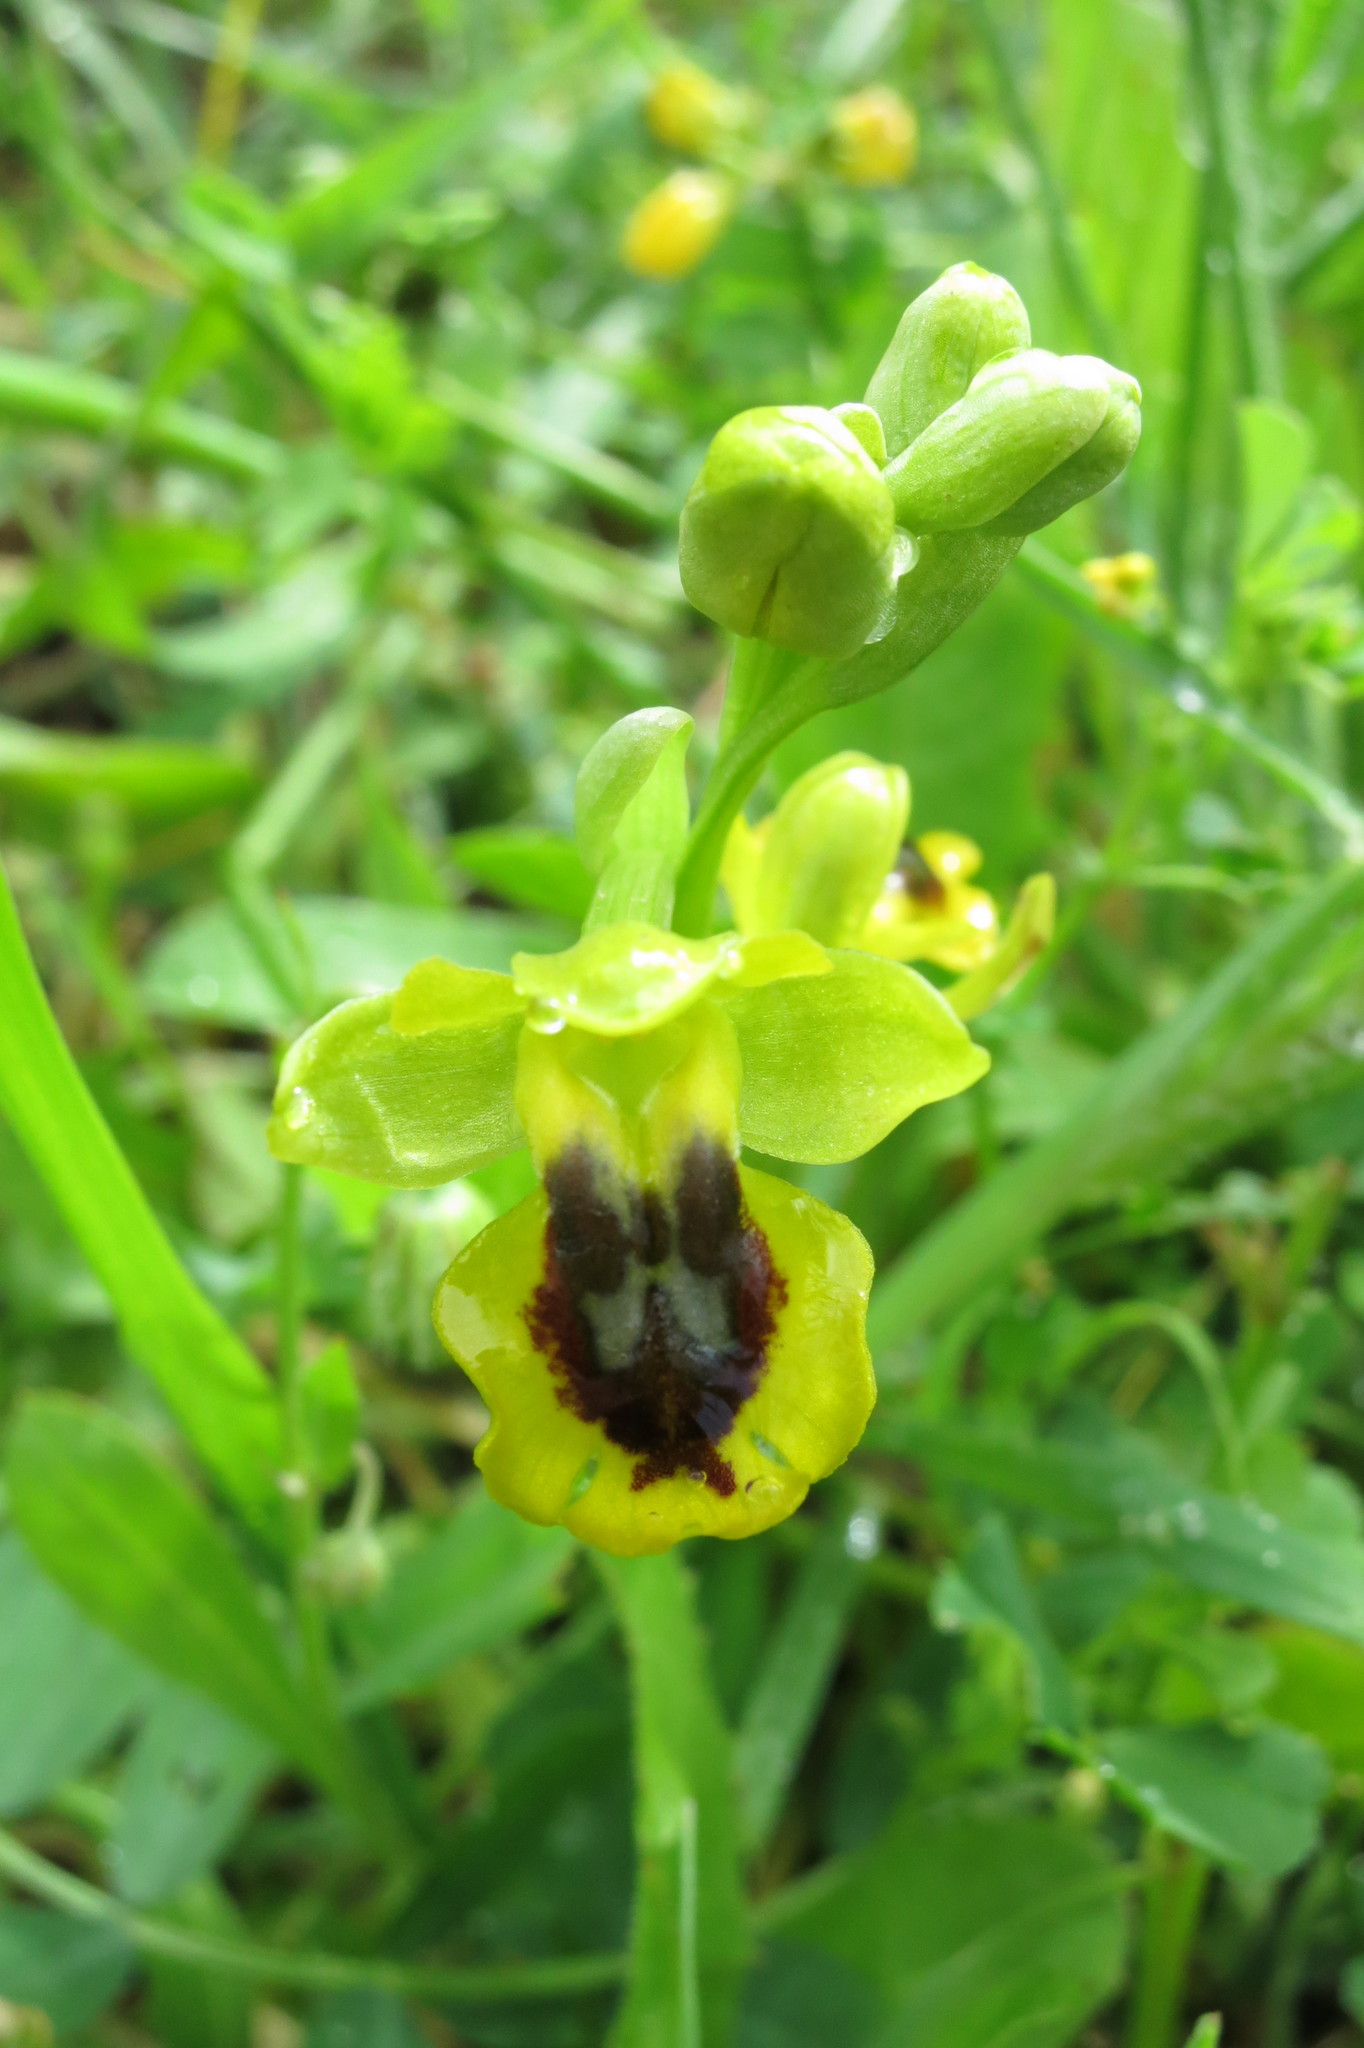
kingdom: Plantae
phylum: Tracheophyta
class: Liliopsida
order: Asparagales
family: Orchidaceae
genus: Ophrys
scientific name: Ophrys lutea
